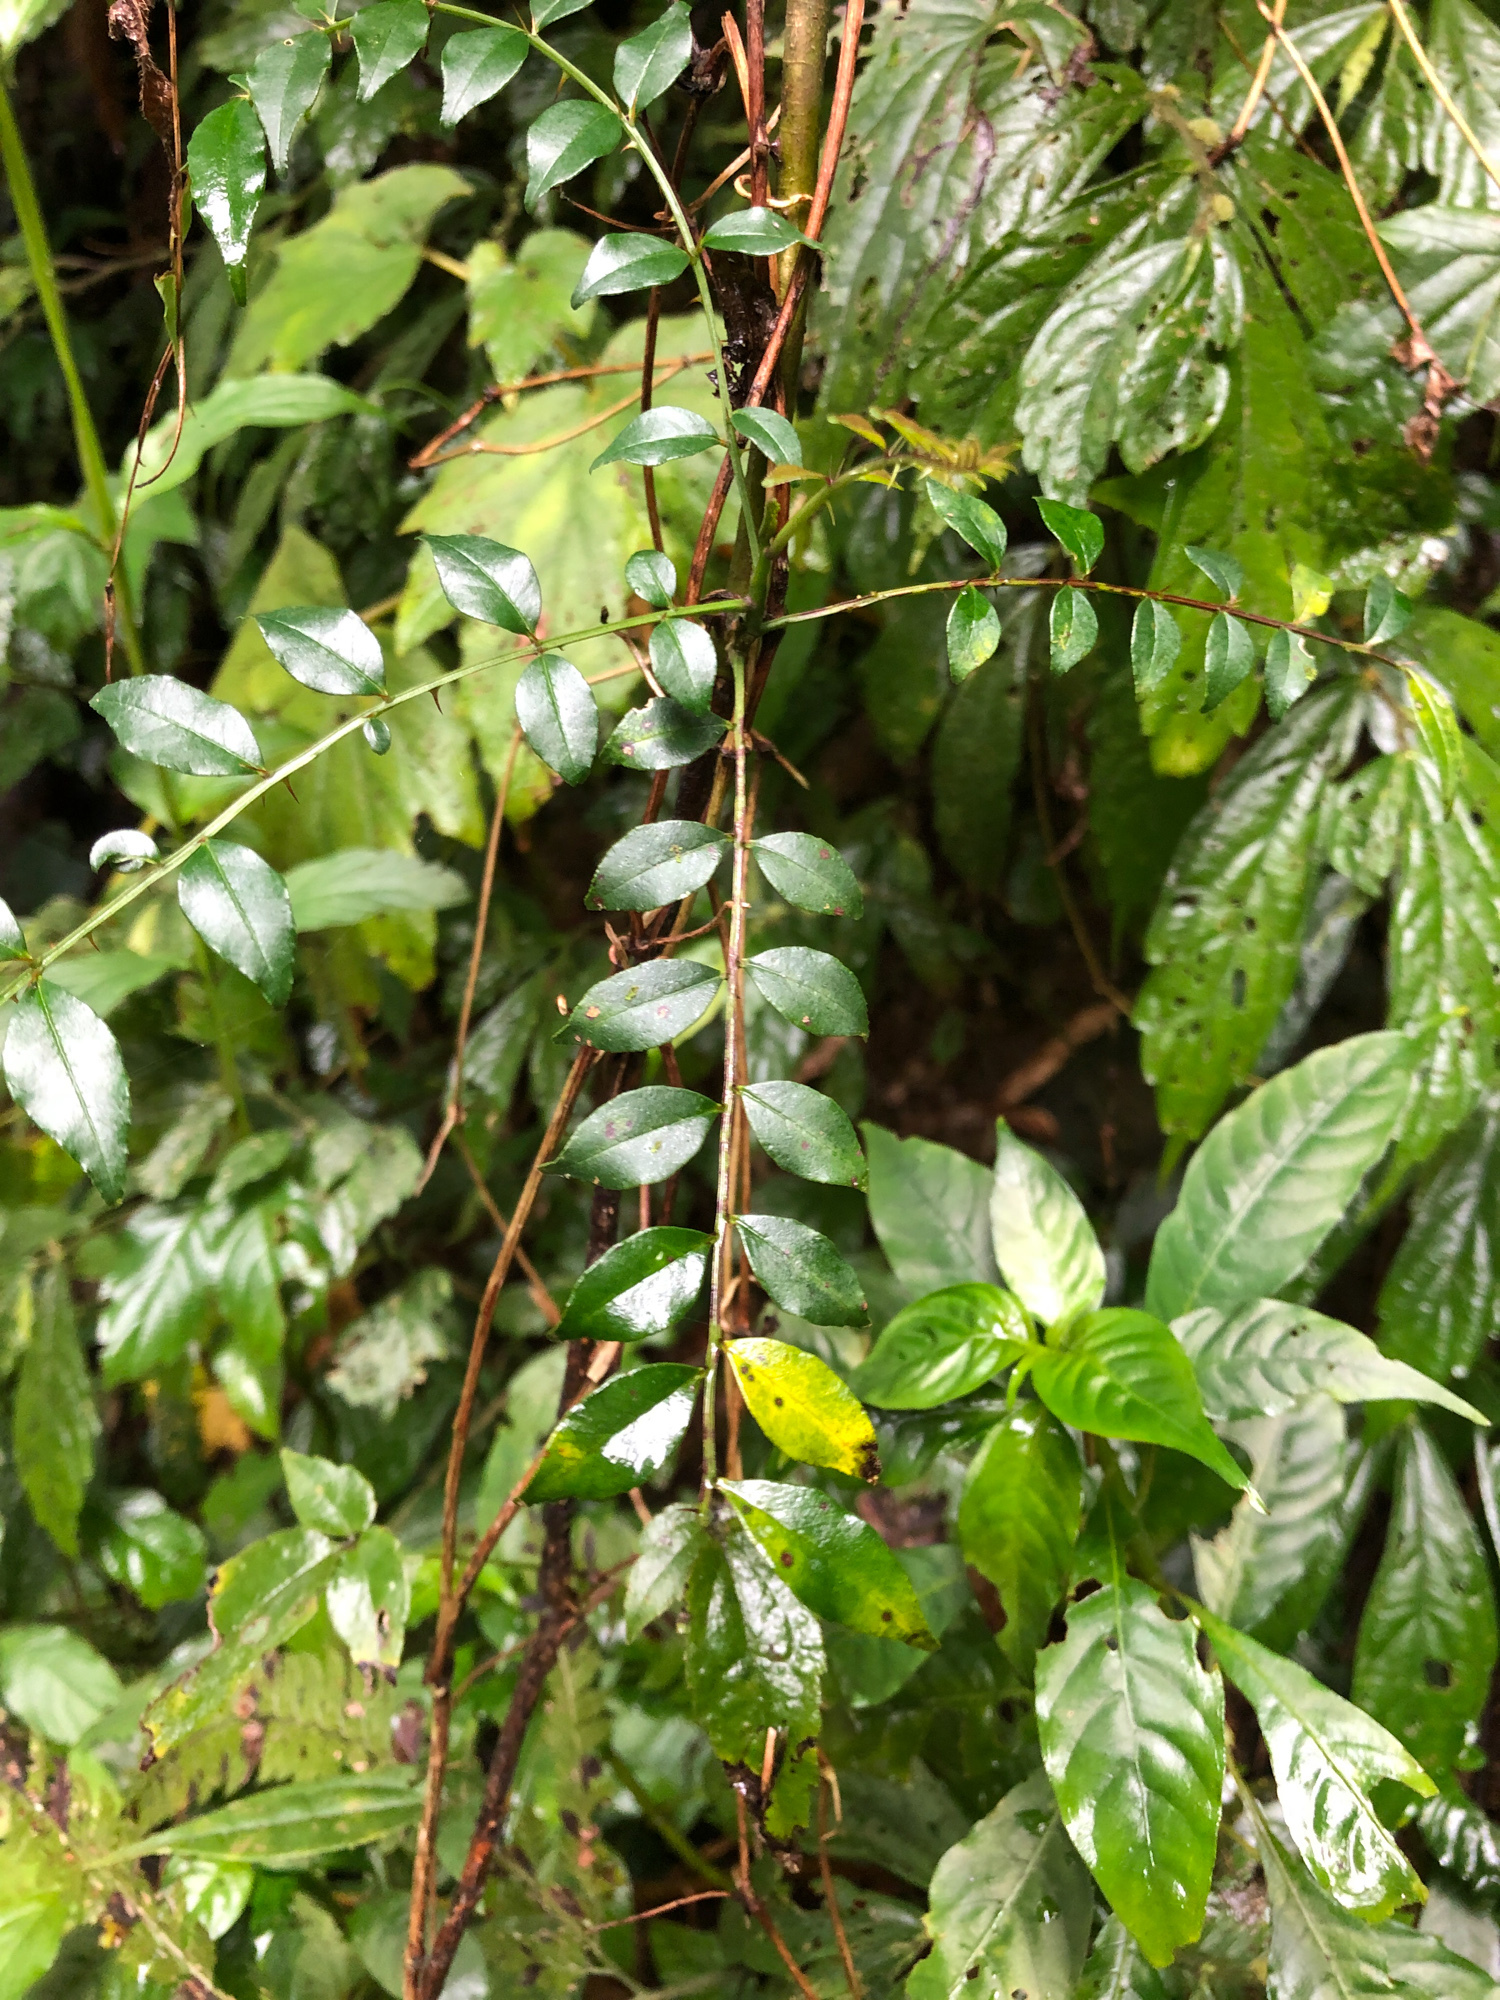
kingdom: Plantae
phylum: Tracheophyta
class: Magnoliopsida
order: Sapindales
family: Rutaceae
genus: Zanthoxylum
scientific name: Zanthoxylum scandens
